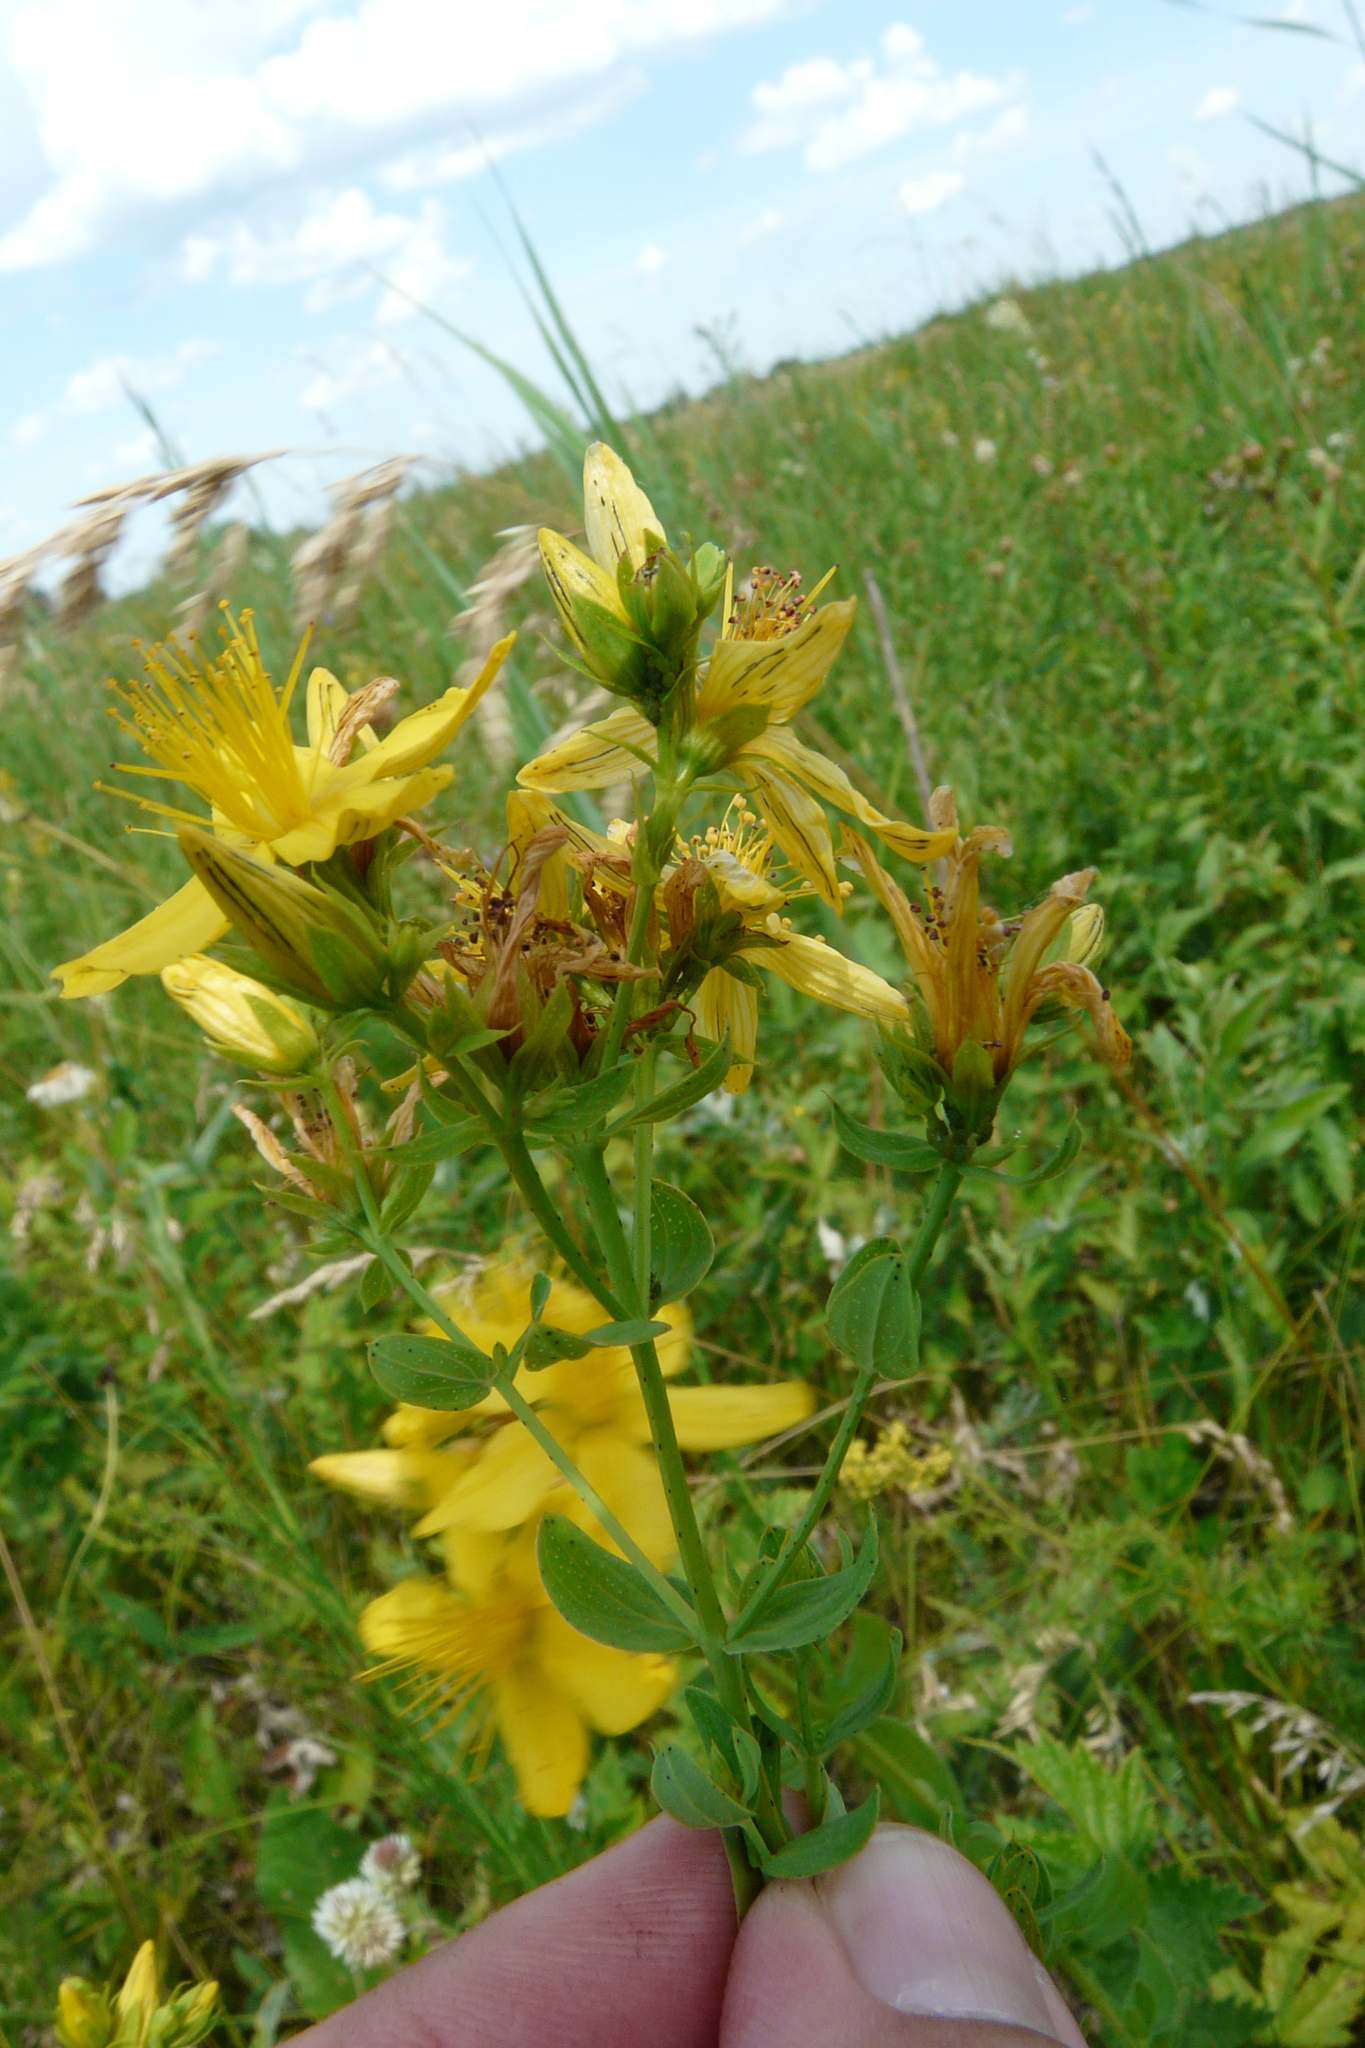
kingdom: Plantae
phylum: Tracheophyta
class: Magnoliopsida
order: Malpighiales
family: Hypericaceae
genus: Hypericum
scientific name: Hypericum perforatum
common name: Common st. johnswort
